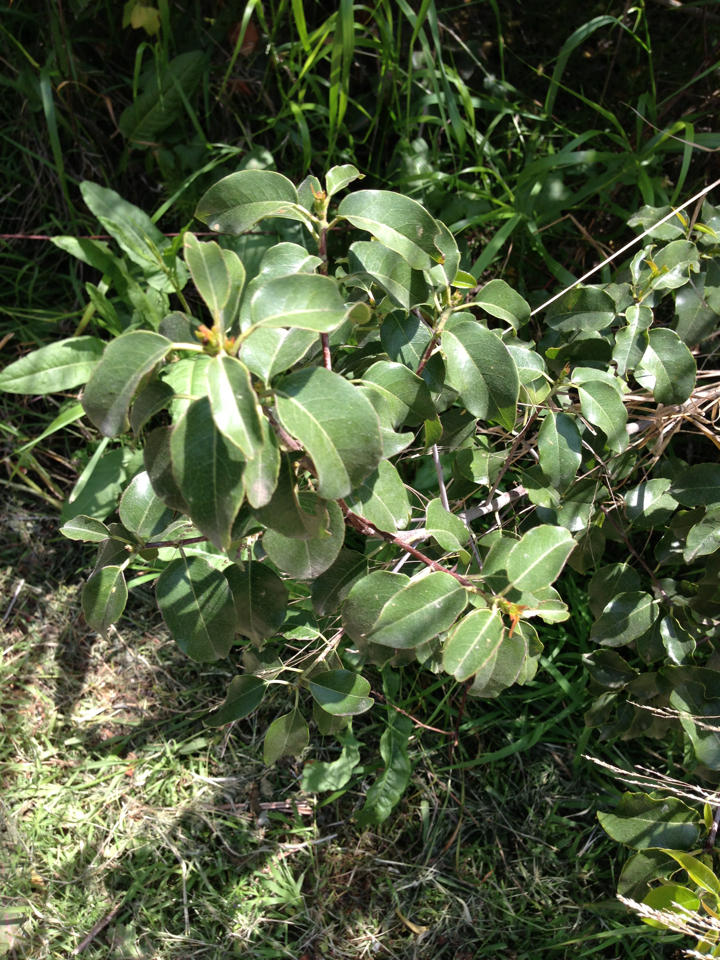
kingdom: Plantae
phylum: Tracheophyta
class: Magnoliopsida
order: Rosales
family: Rosaceae
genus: Prunus
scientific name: Prunus ilicifolia
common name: Hollyleaf cherry
